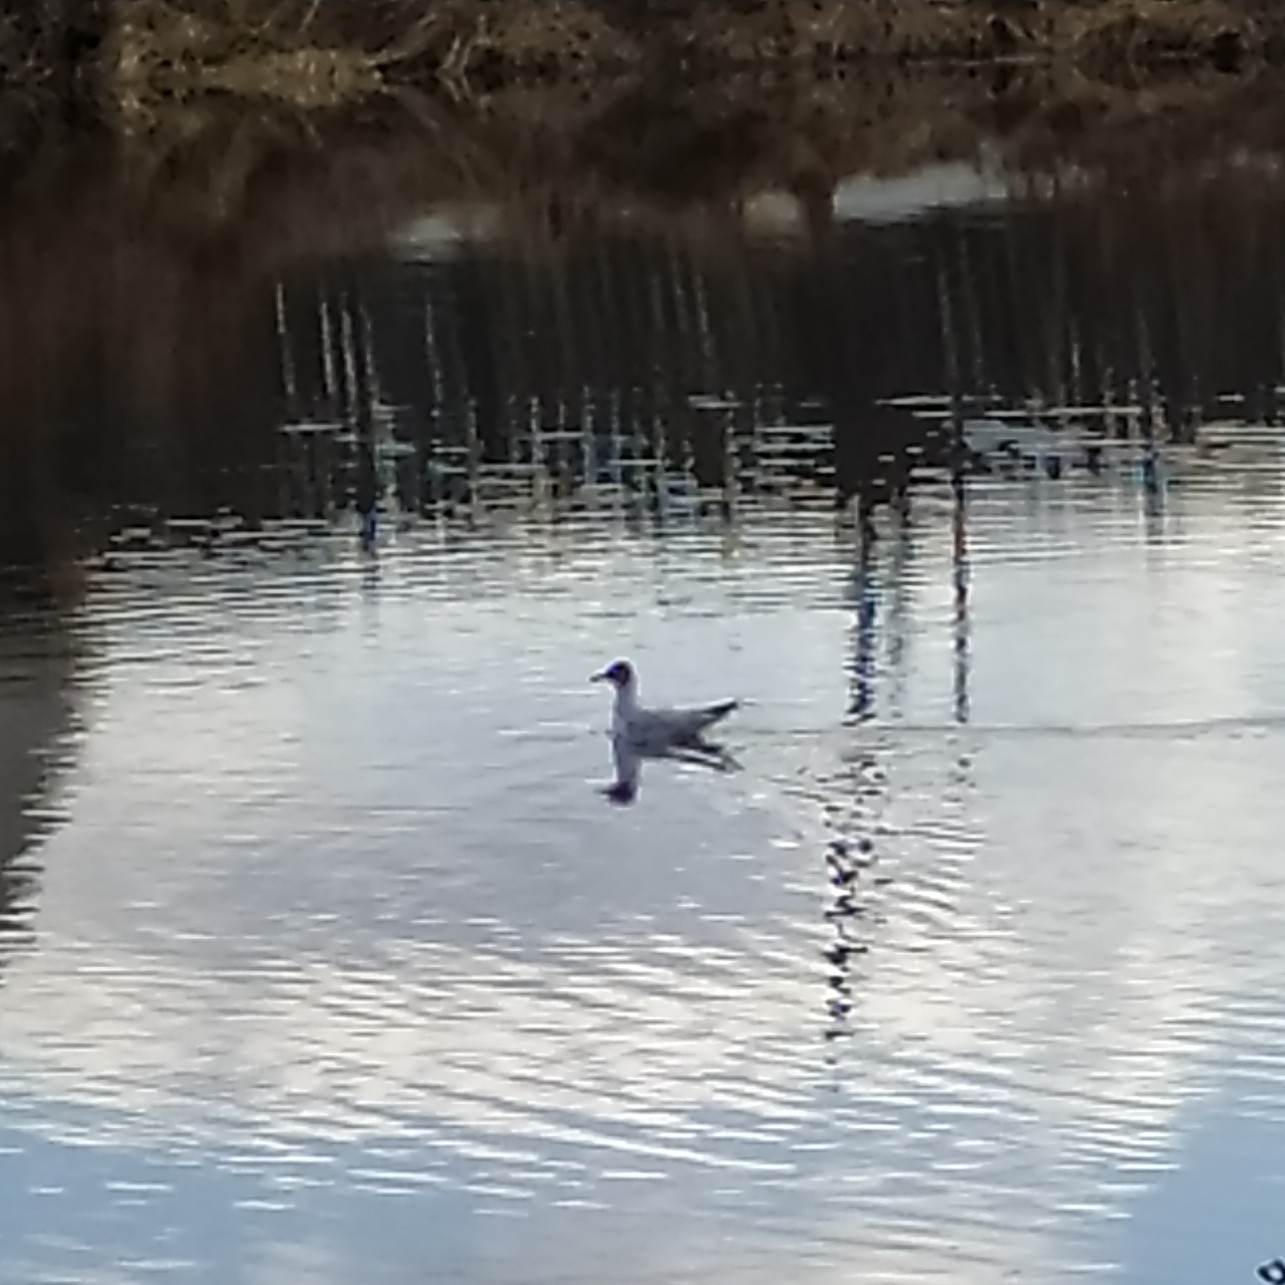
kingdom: Animalia
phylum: Chordata
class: Aves
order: Charadriiformes
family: Laridae
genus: Chroicocephalus
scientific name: Chroicocephalus ridibundus
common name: Black-headed gull
